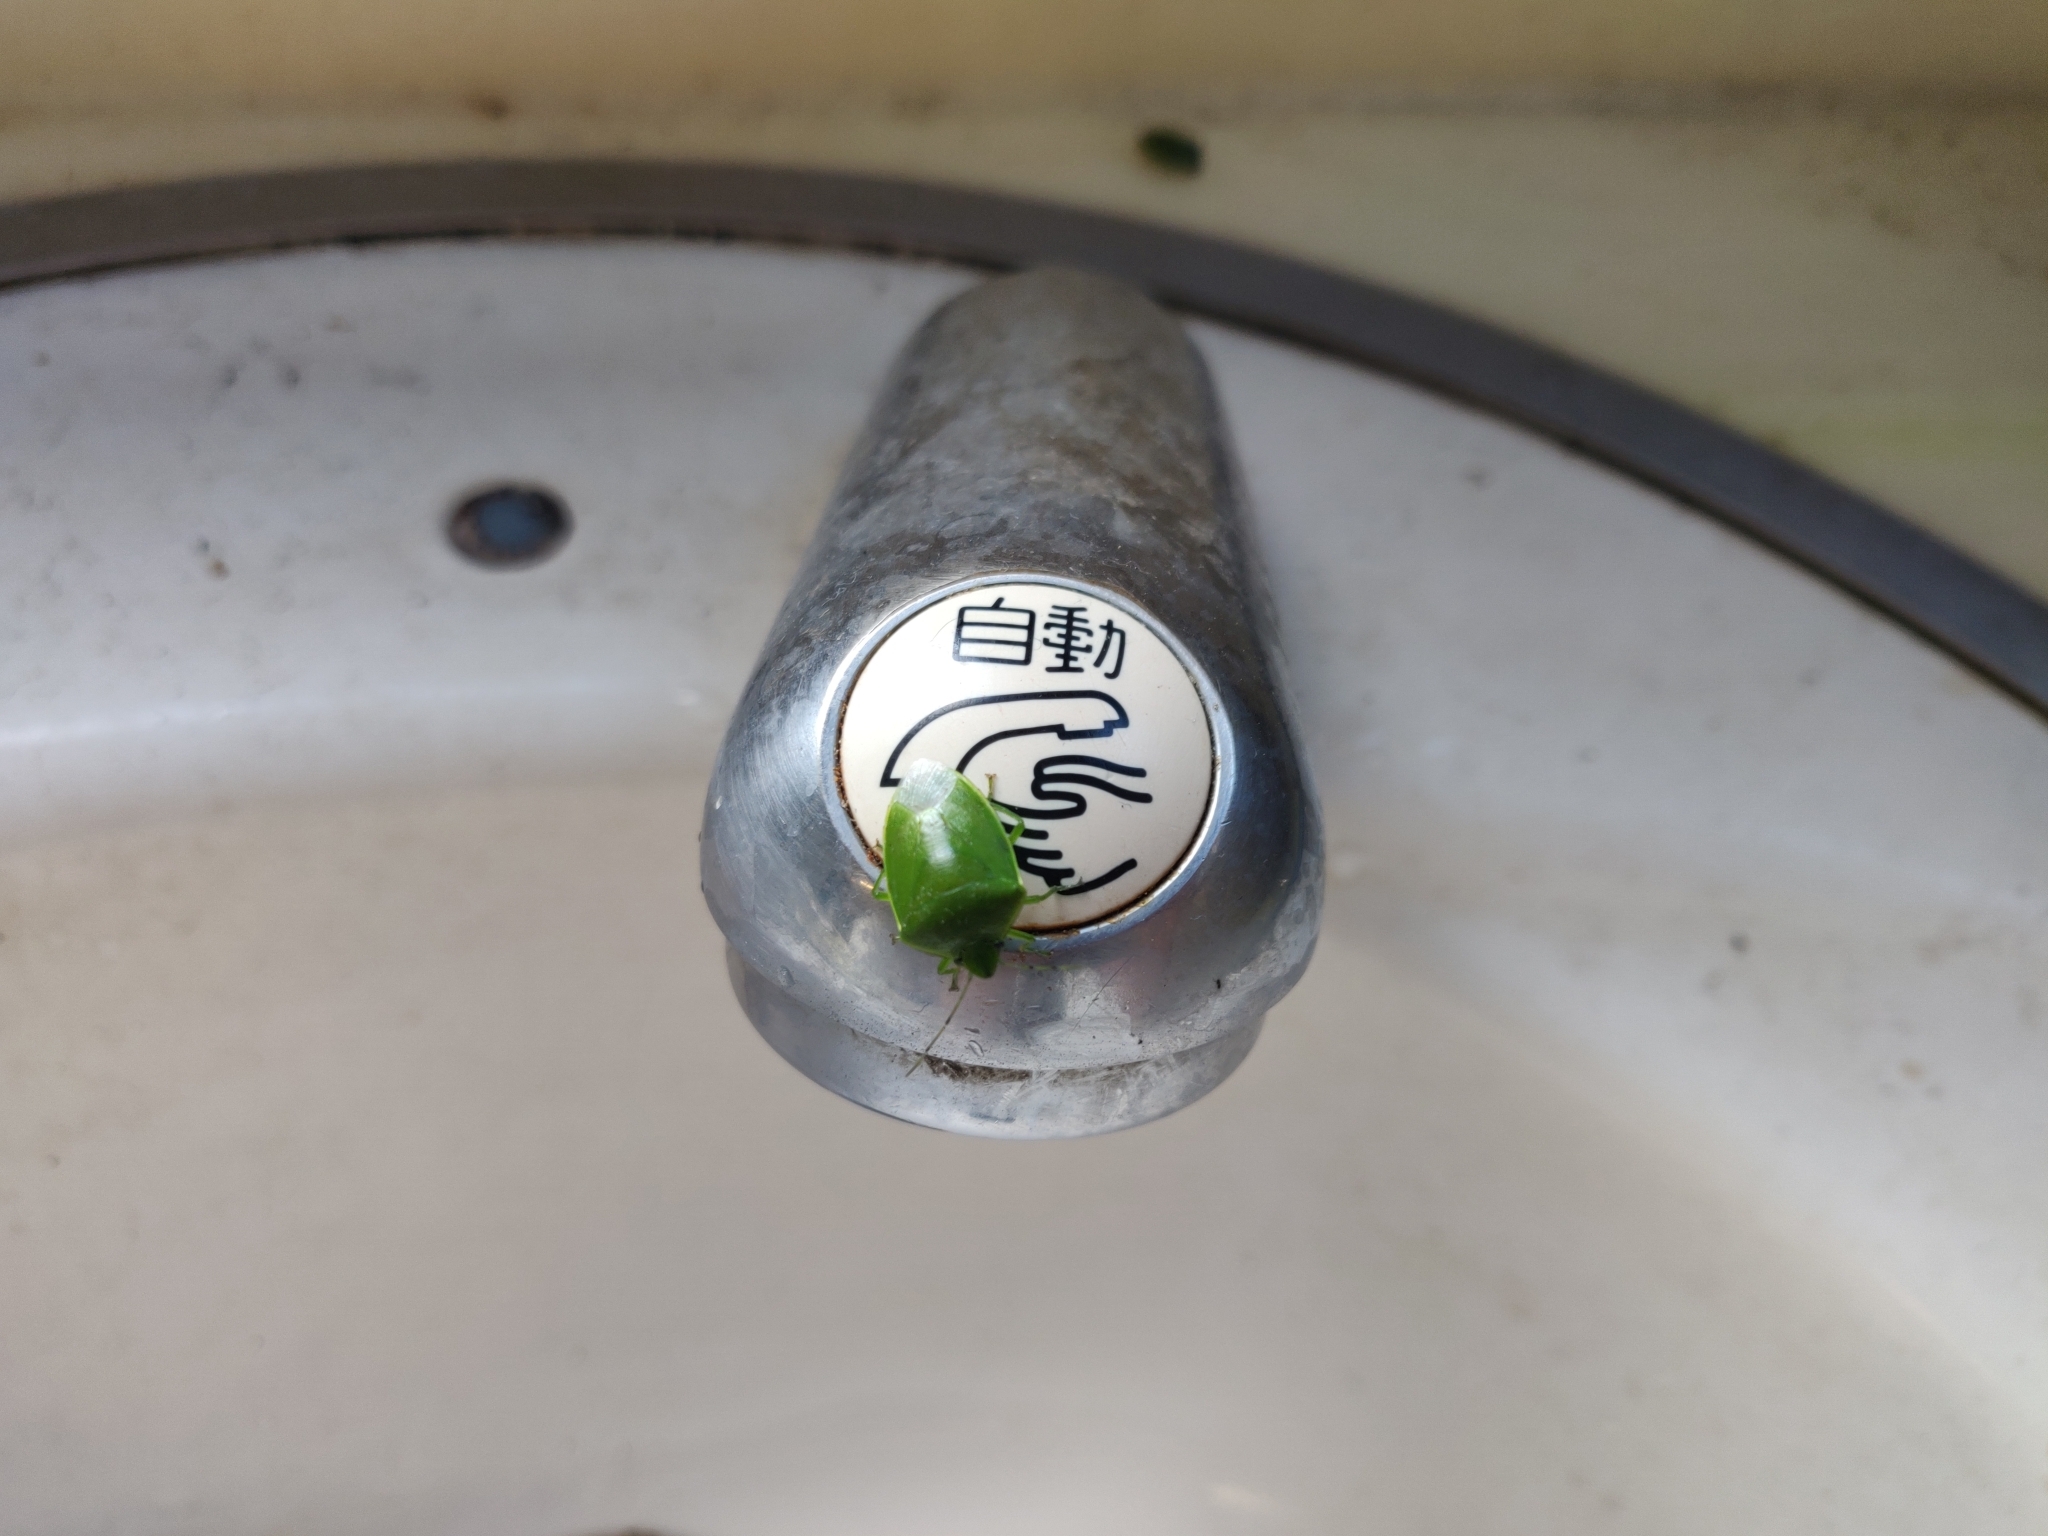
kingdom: Animalia
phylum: Arthropoda
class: Insecta
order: Hemiptera
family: Pentatomidae
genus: Glaucias
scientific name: Glaucias subpunctatus
